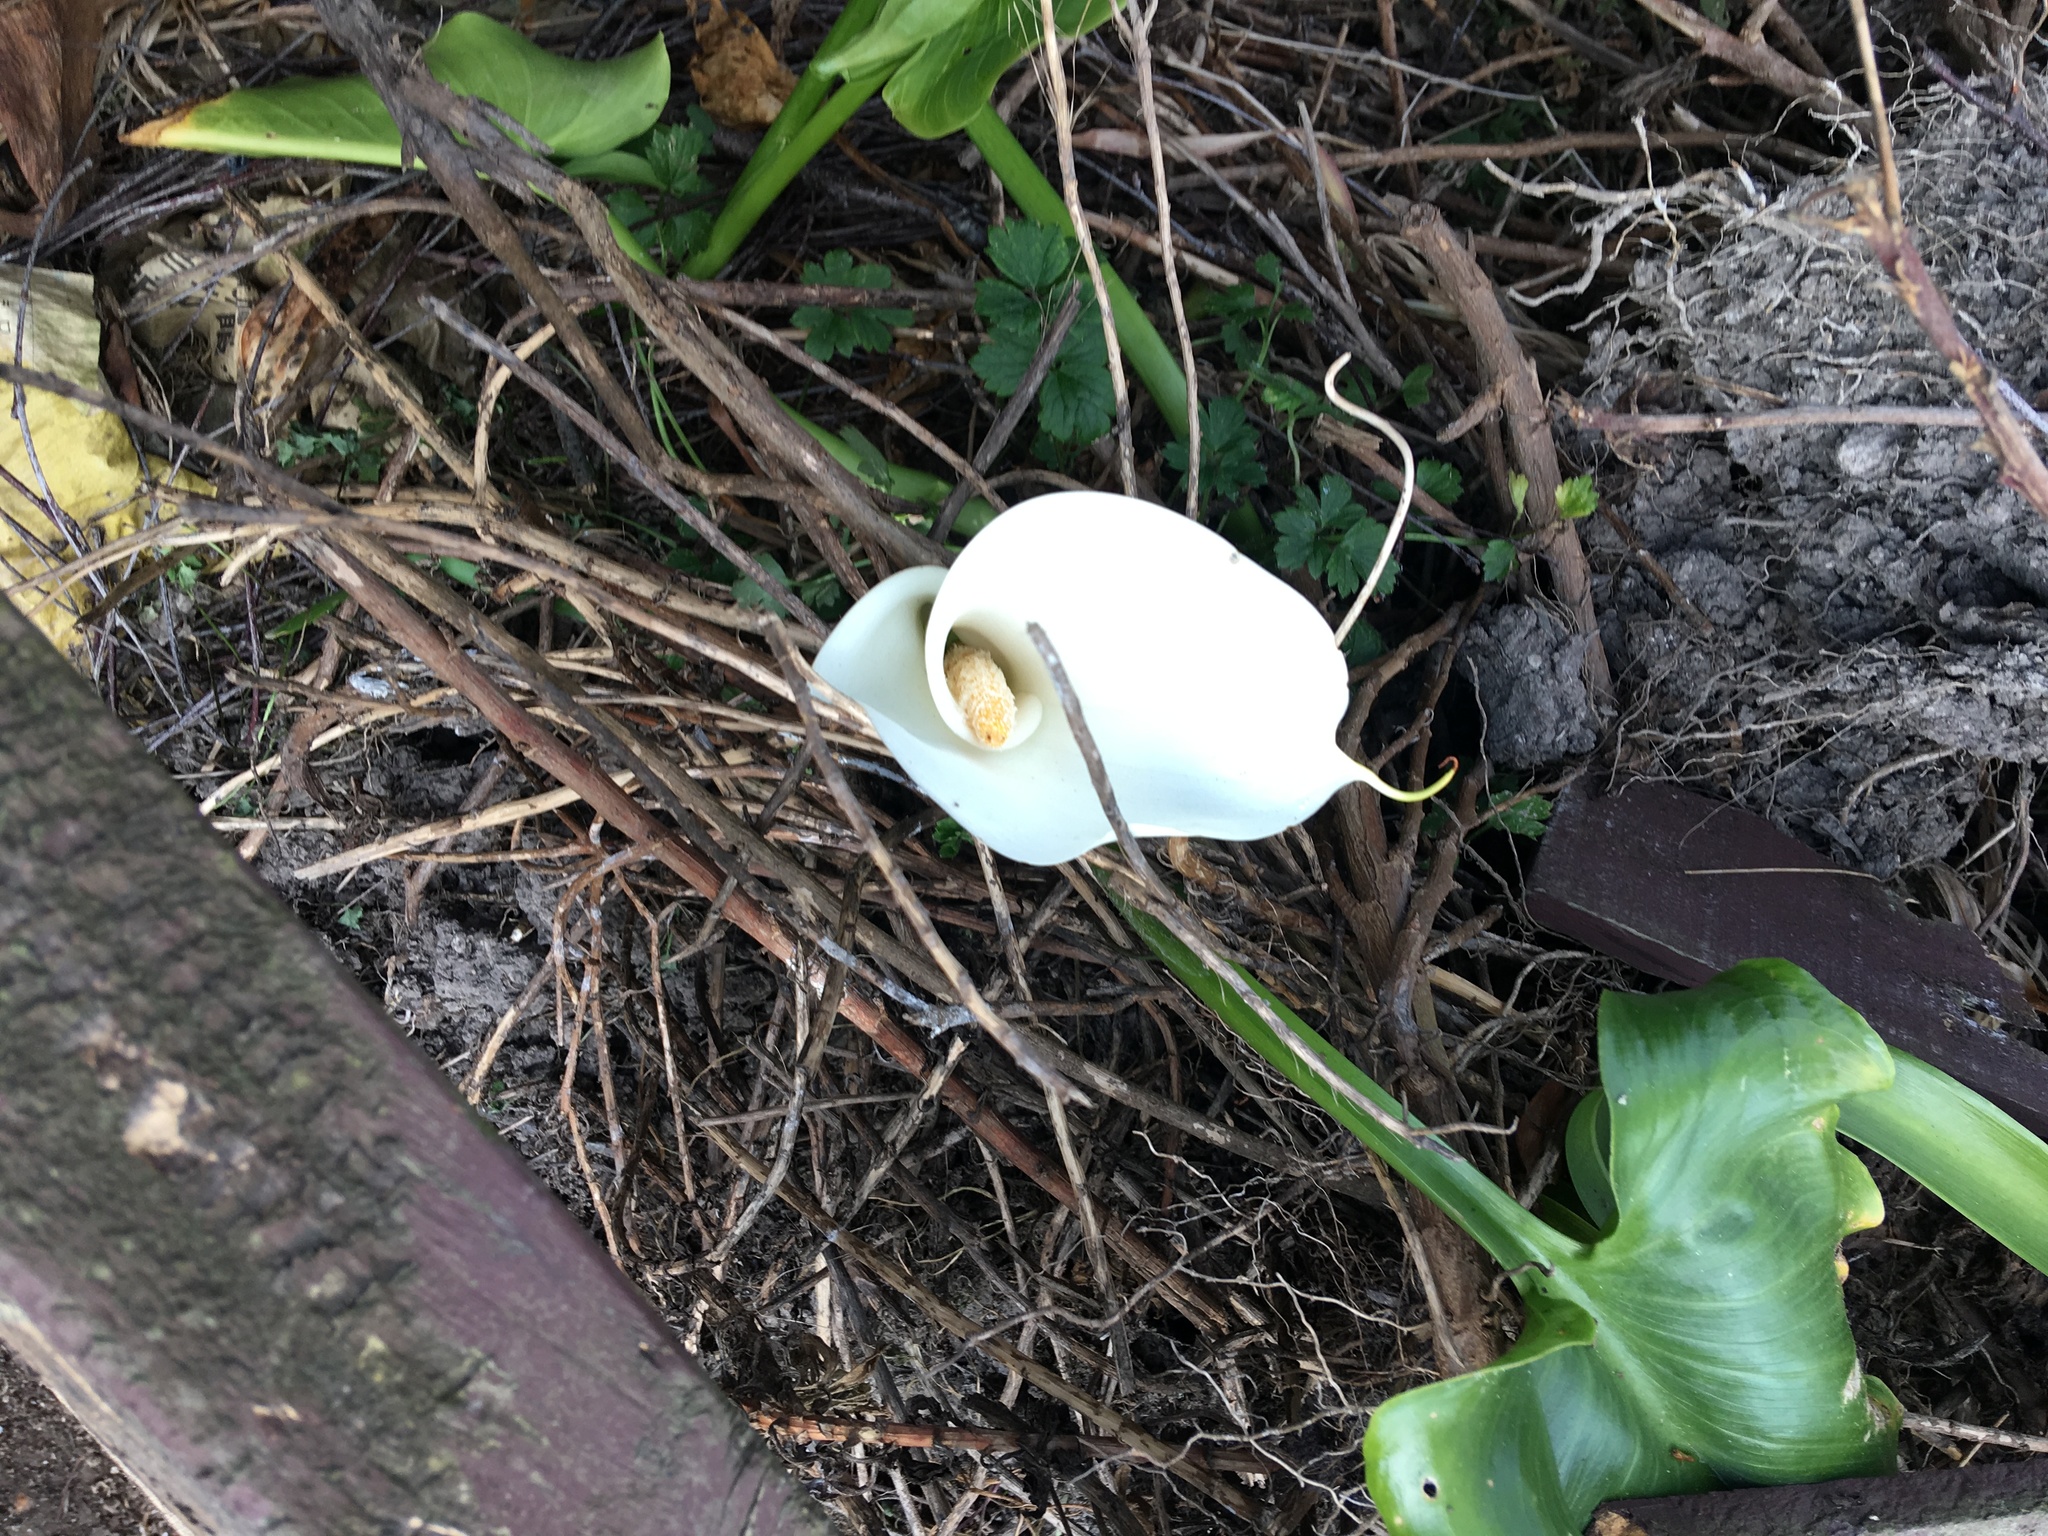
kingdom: Plantae
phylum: Tracheophyta
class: Liliopsida
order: Alismatales
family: Araceae
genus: Zantedeschia
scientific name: Zantedeschia aethiopica
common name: Altar-lily
